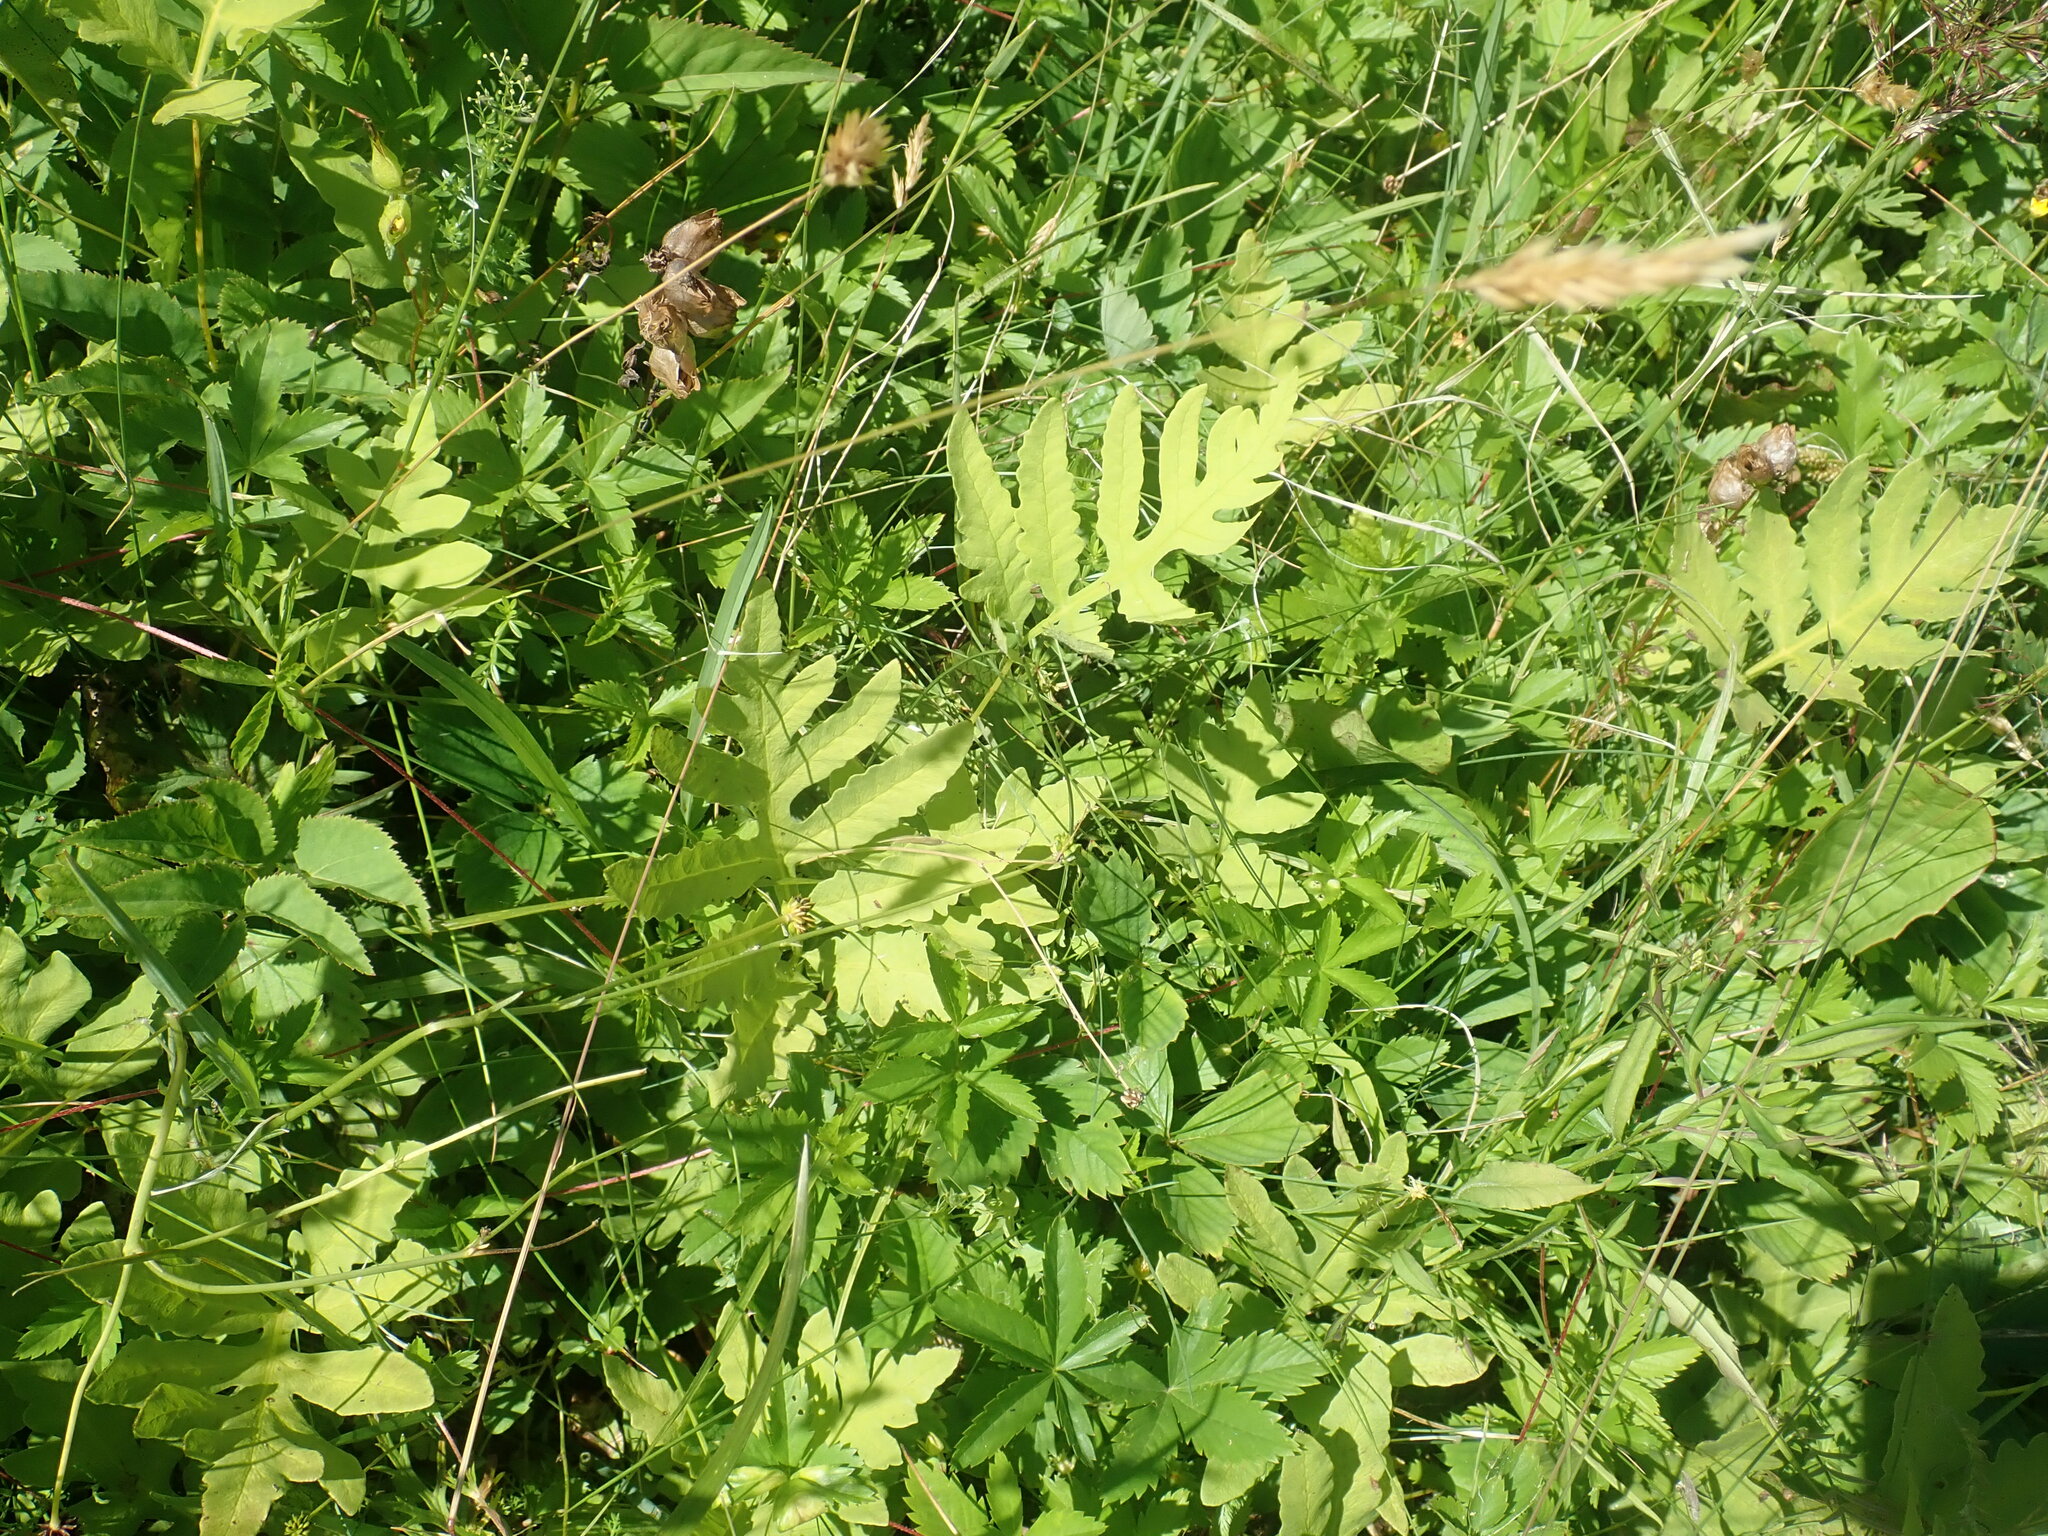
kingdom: Plantae
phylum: Tracheophyta
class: Polypodiopsida
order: Polypodiales
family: Onocleaceae
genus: Onoclea
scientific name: Onoclea sensibilis
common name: Sensitive fern
